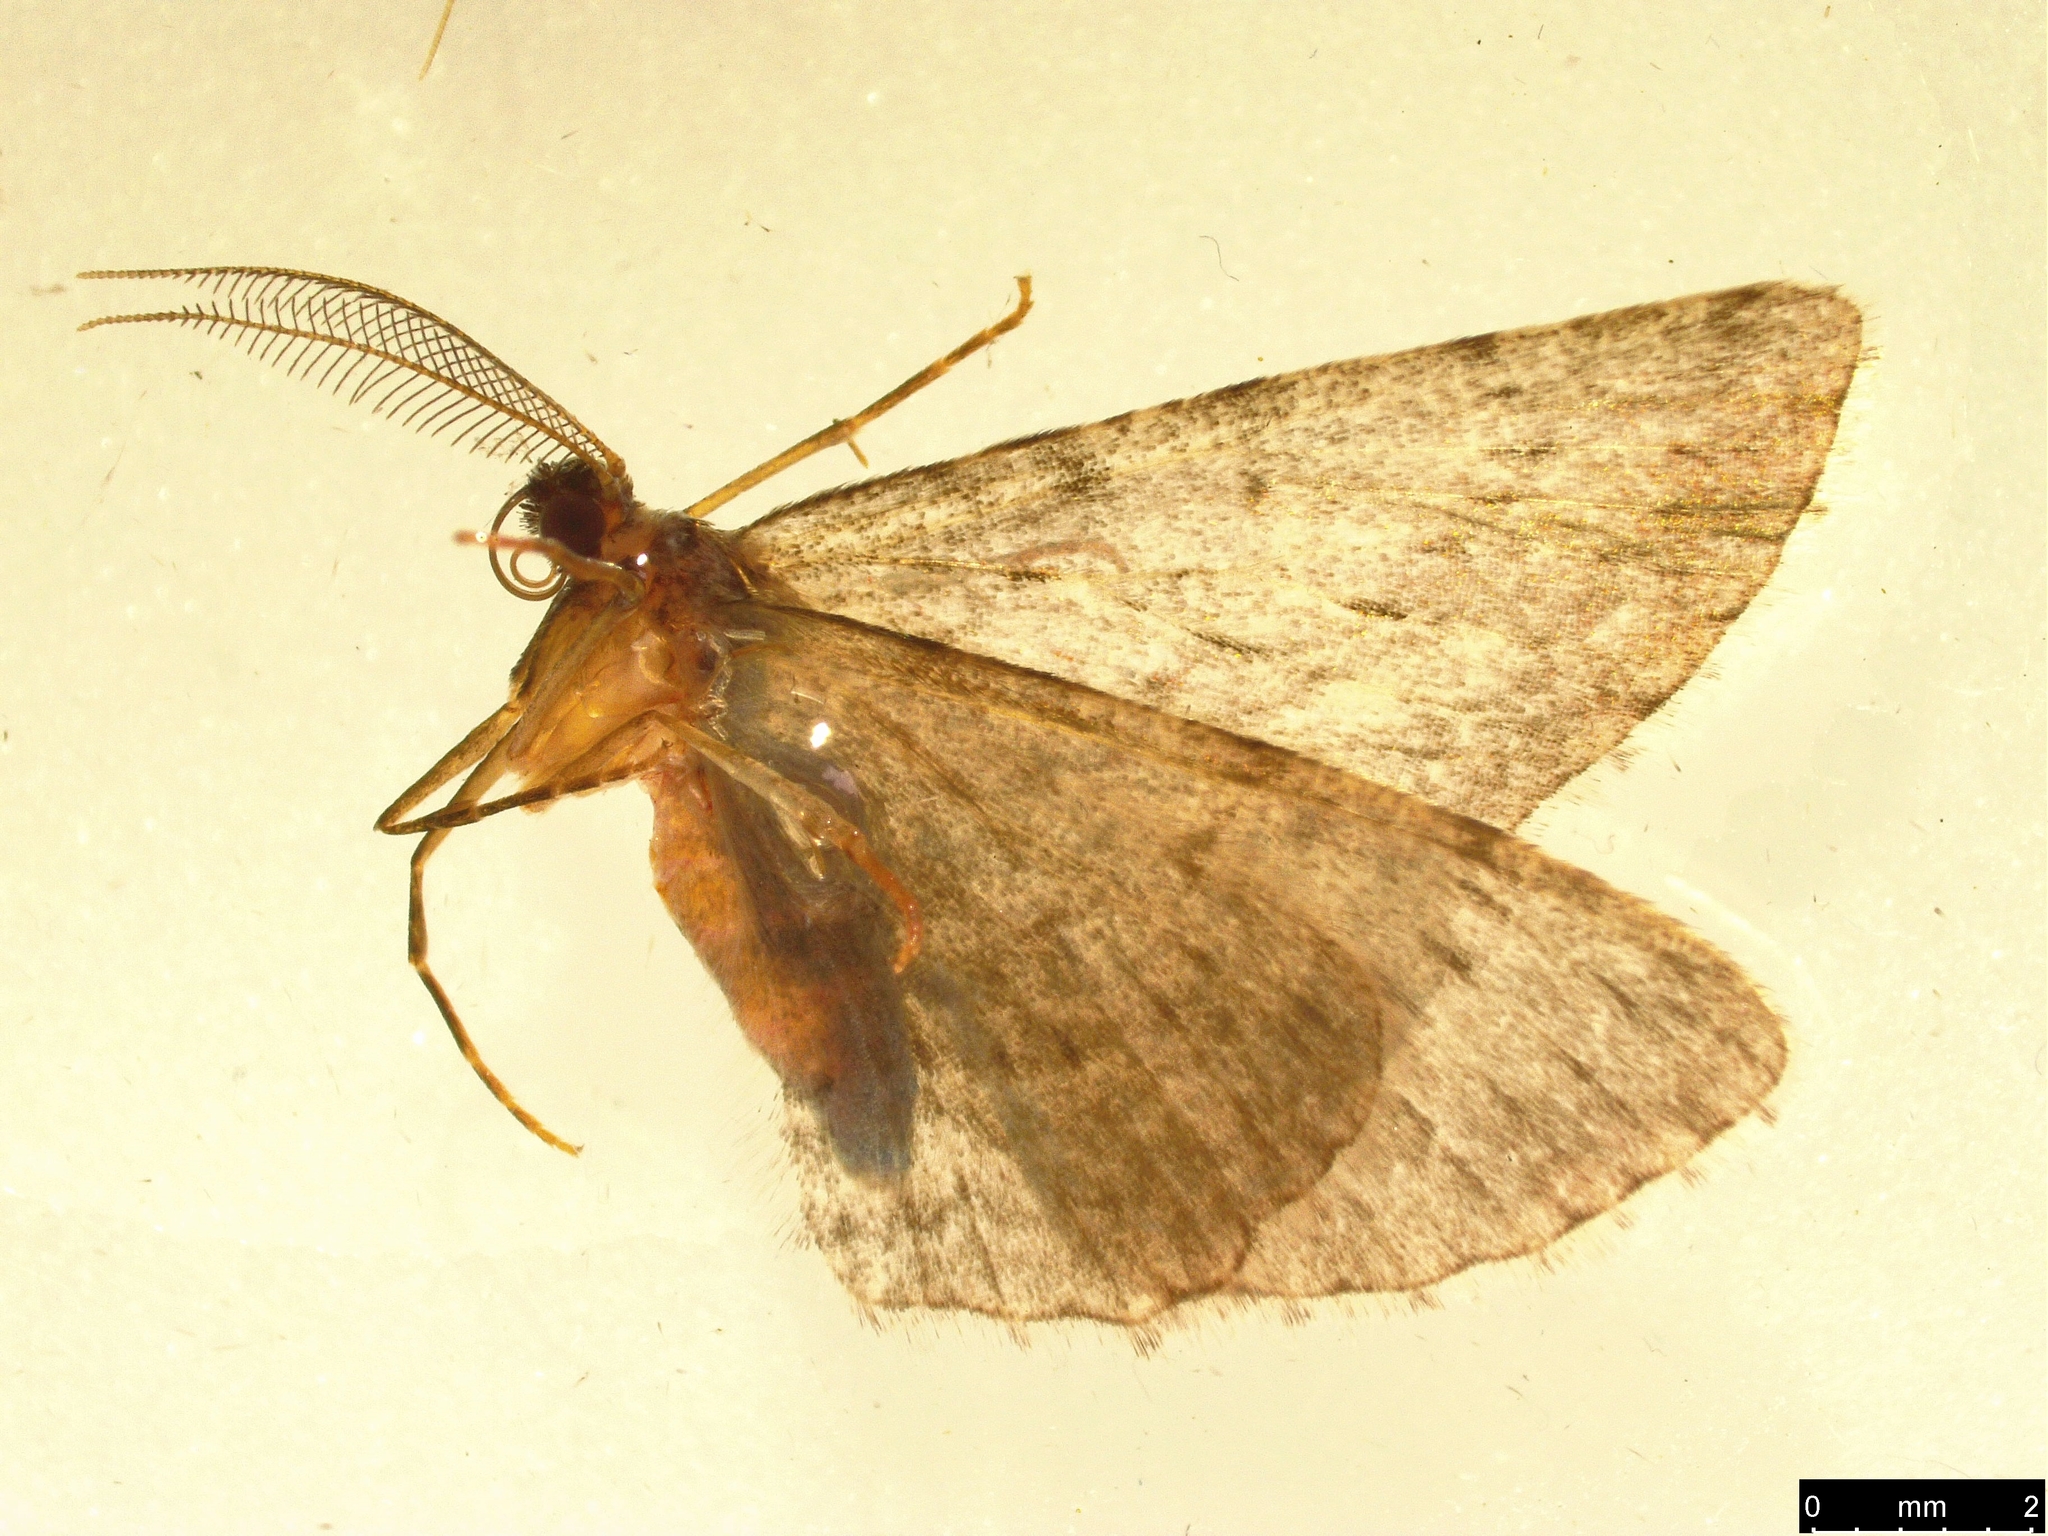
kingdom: Animalia
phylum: Arthropoda
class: Insecta
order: Lepidoptera
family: Geometridae
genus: Phelotis
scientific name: Phelotis cognata
